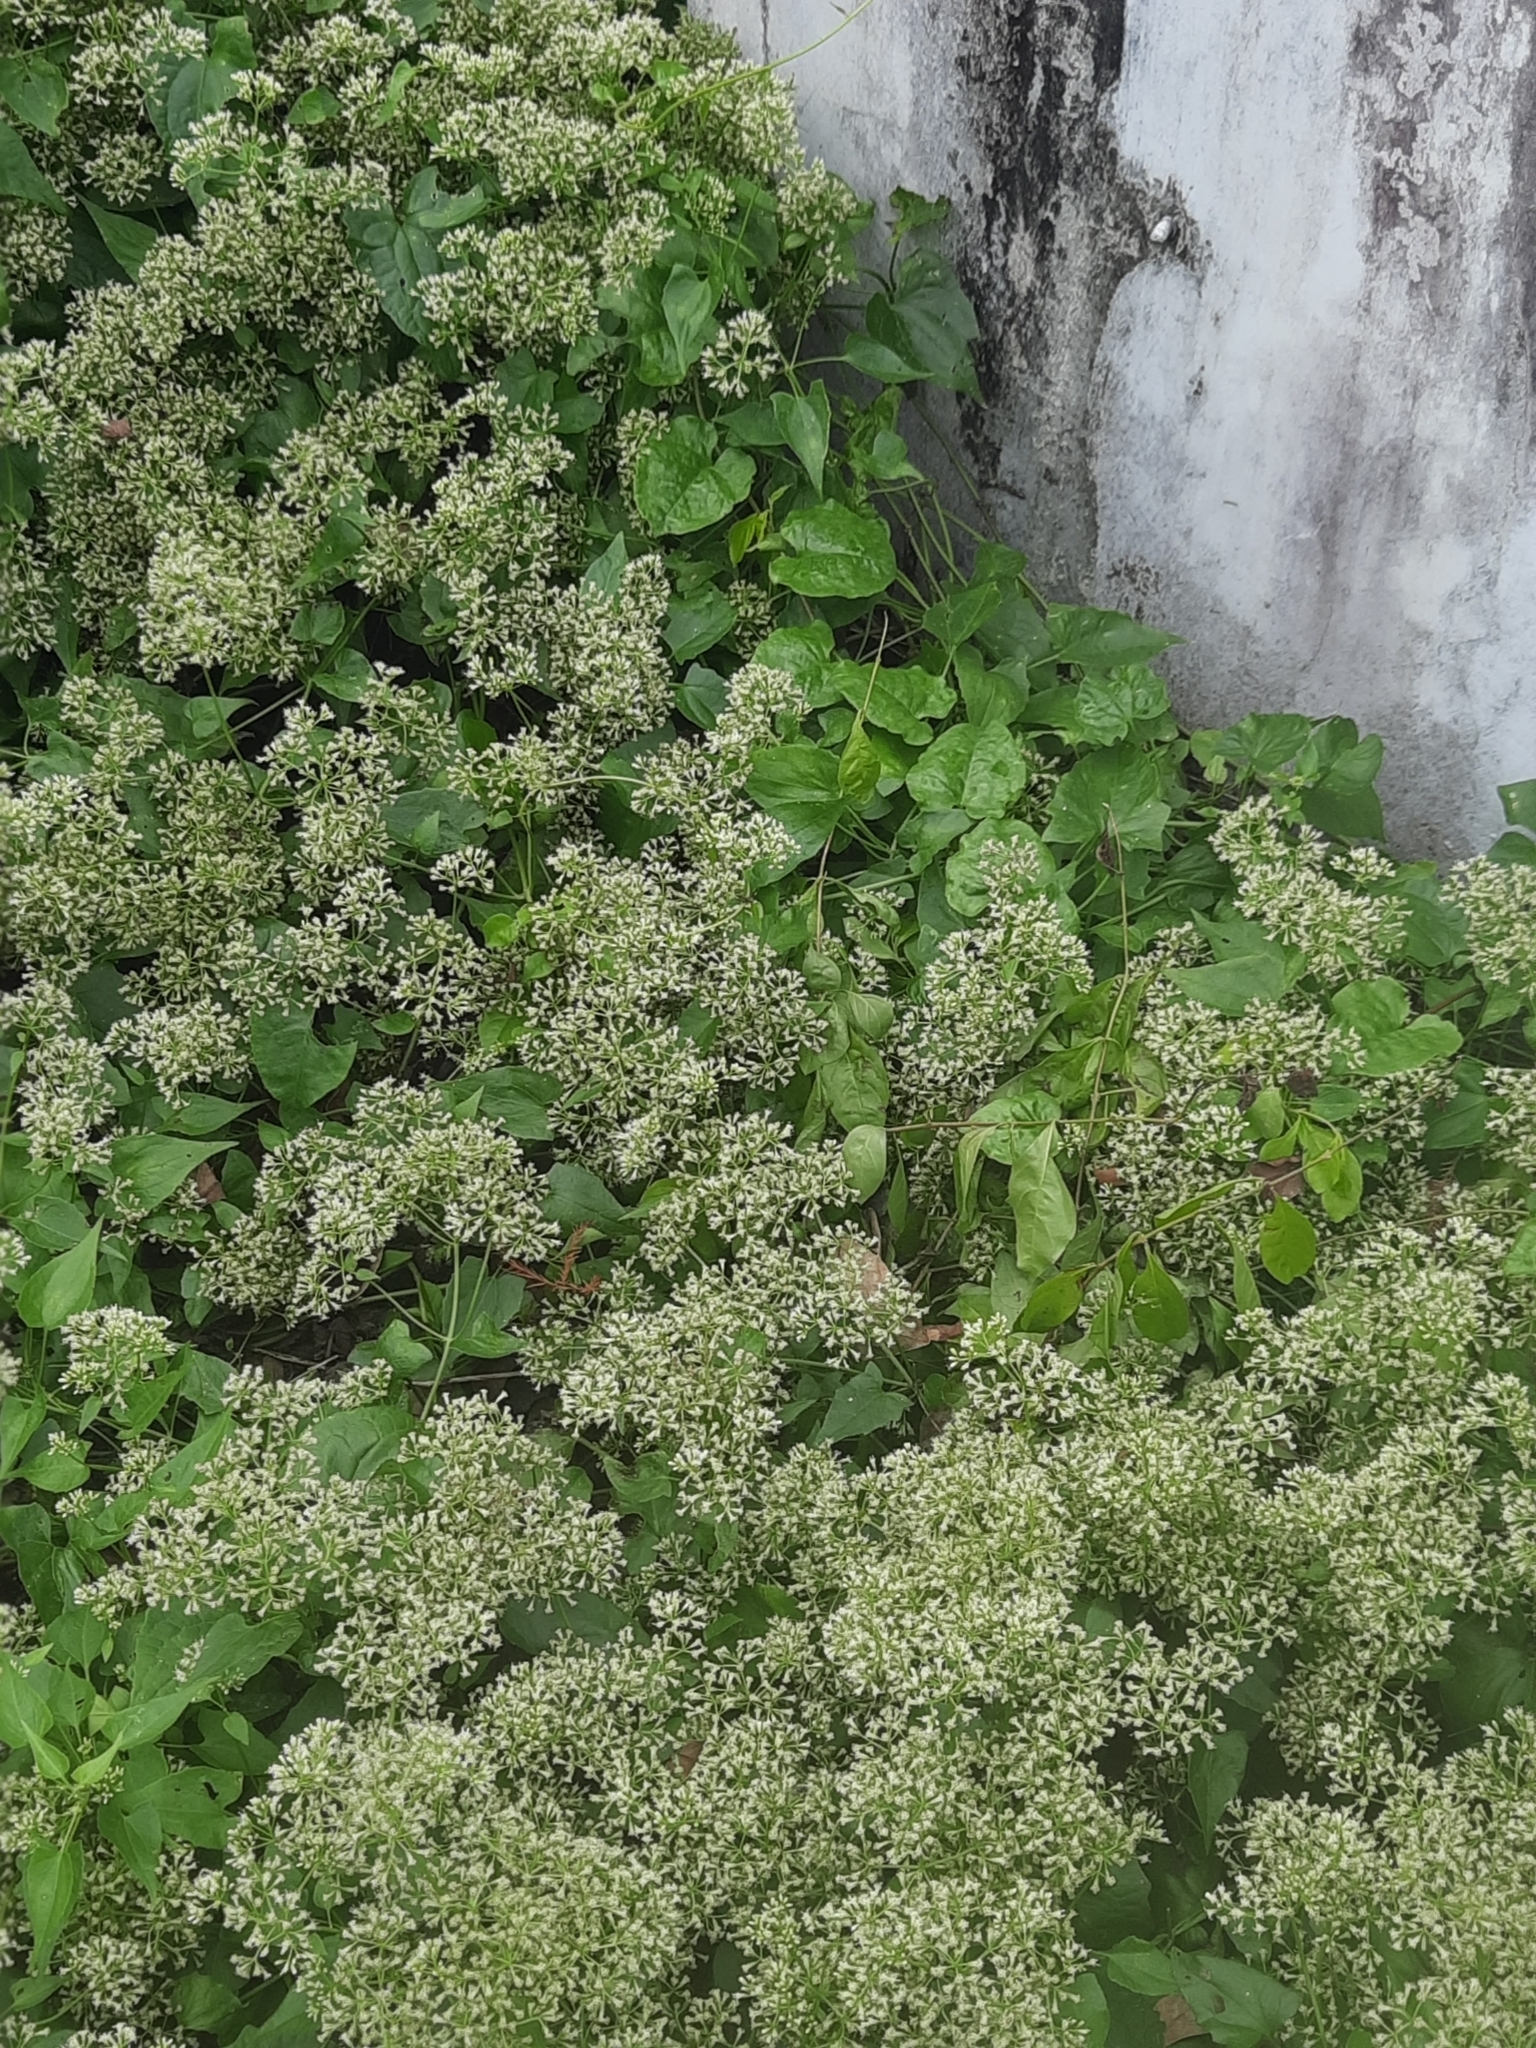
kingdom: Plantae
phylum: Tracheophyta
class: Magnoliopsida
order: Asterales
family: Asteraceae
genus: Mikania
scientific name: Mikania micrantha
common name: Mile-a-minute
